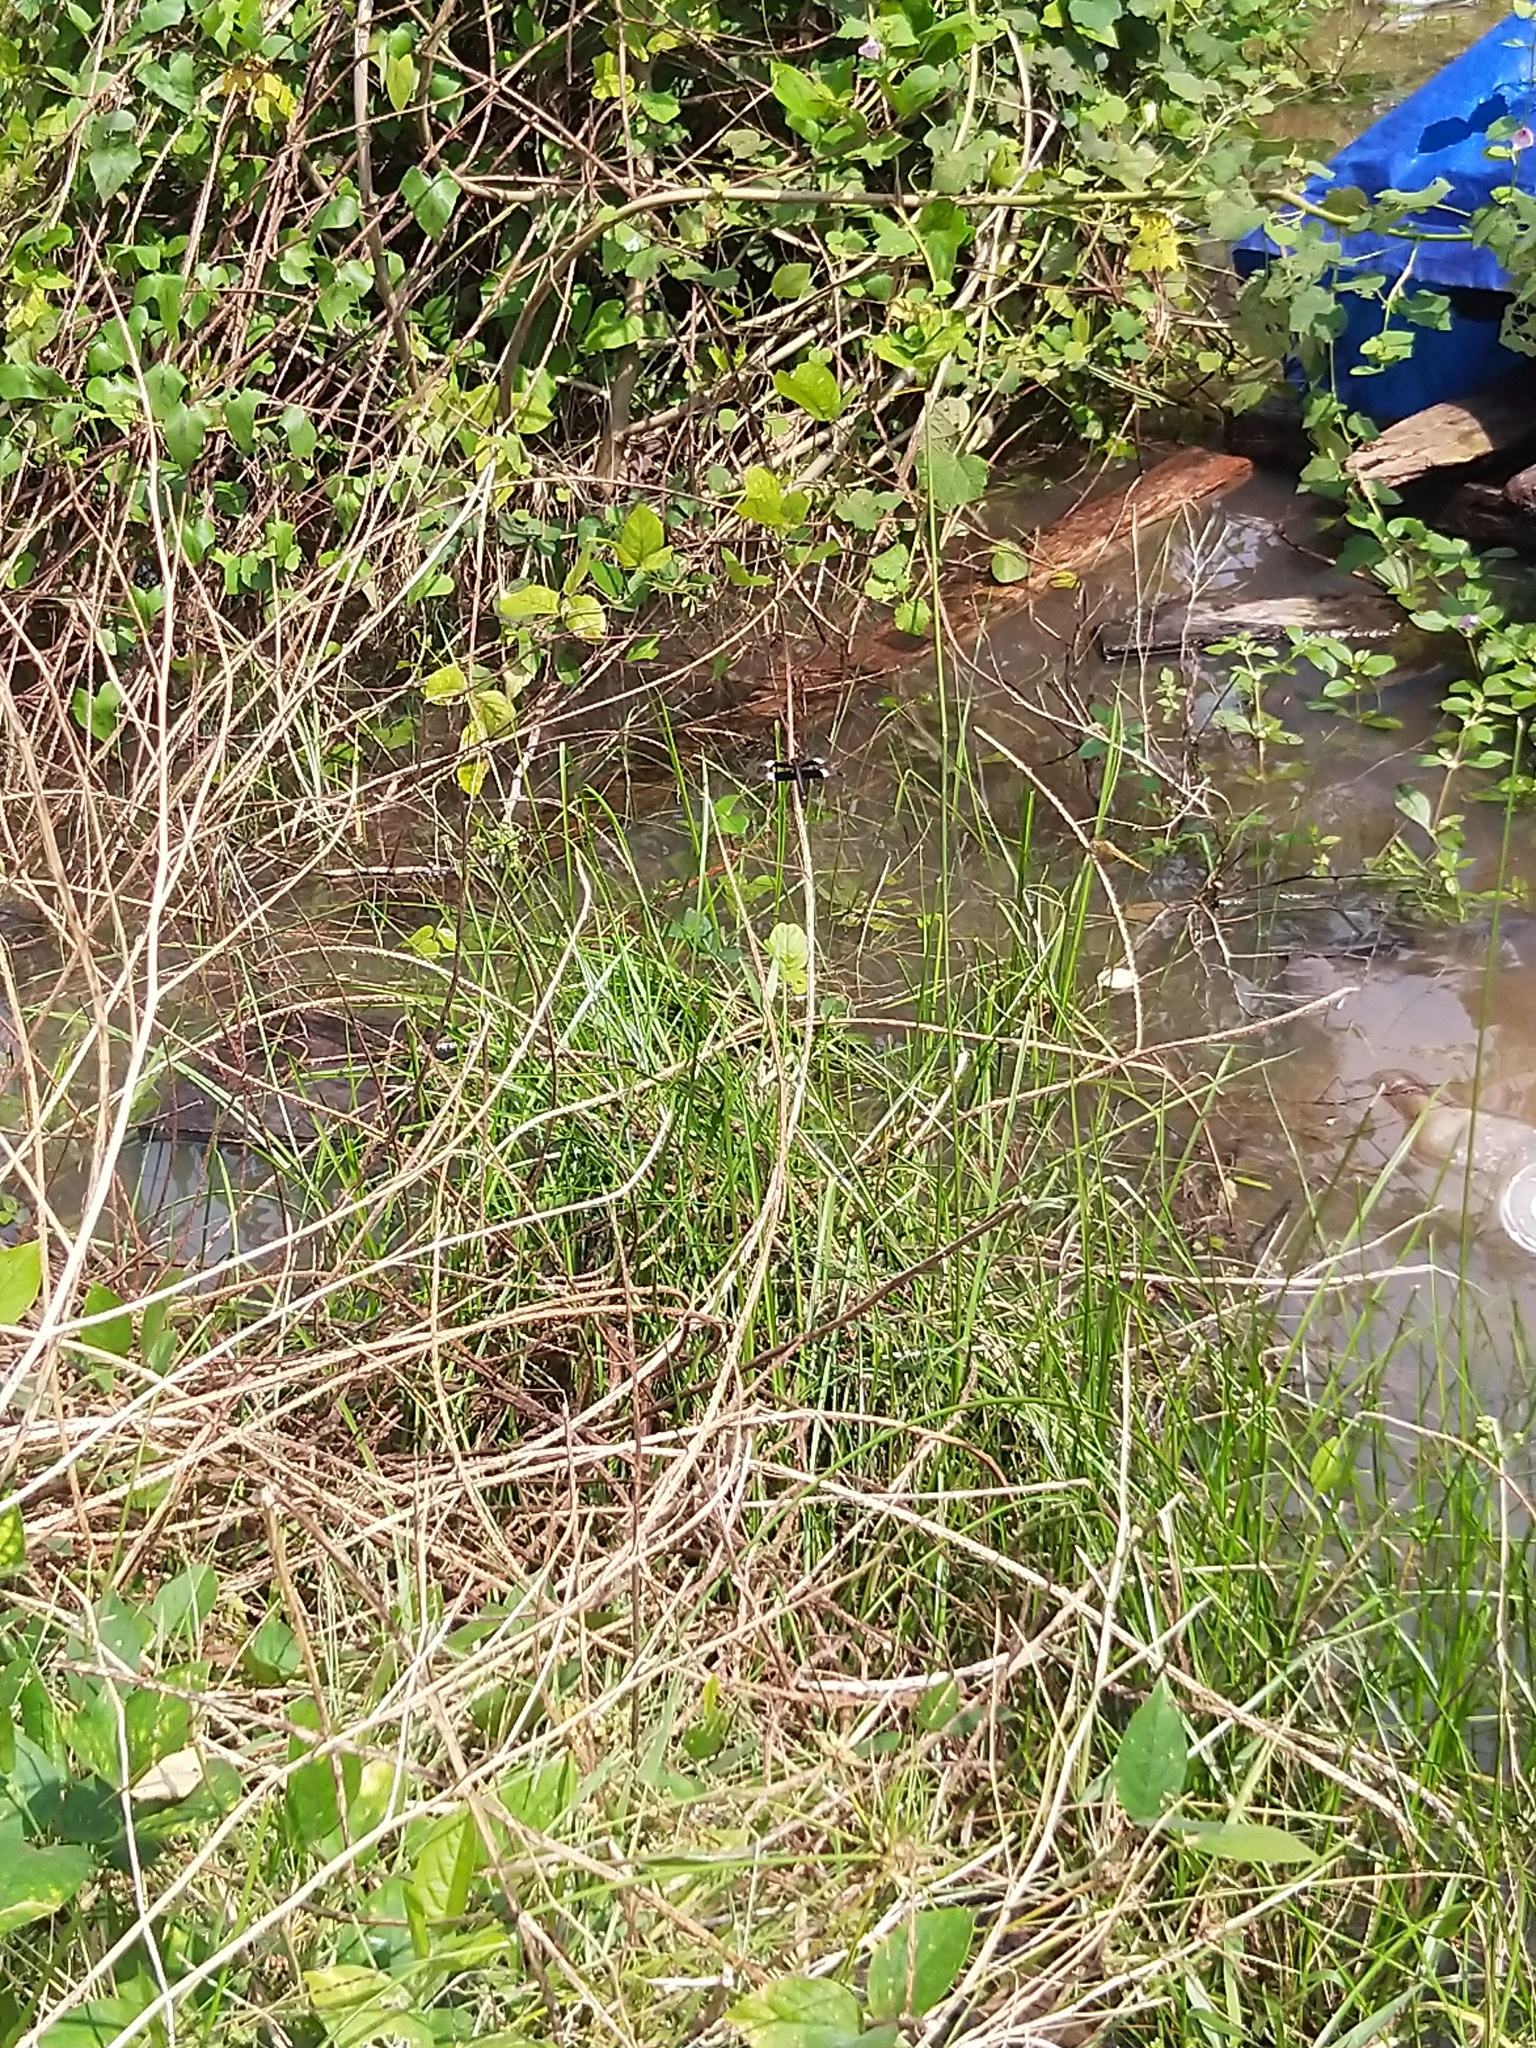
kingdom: Animalia
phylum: Arthropoda
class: Insecta
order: Odonata
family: Libellulidae
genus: Neurothemis
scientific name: Neurothemis tullia
